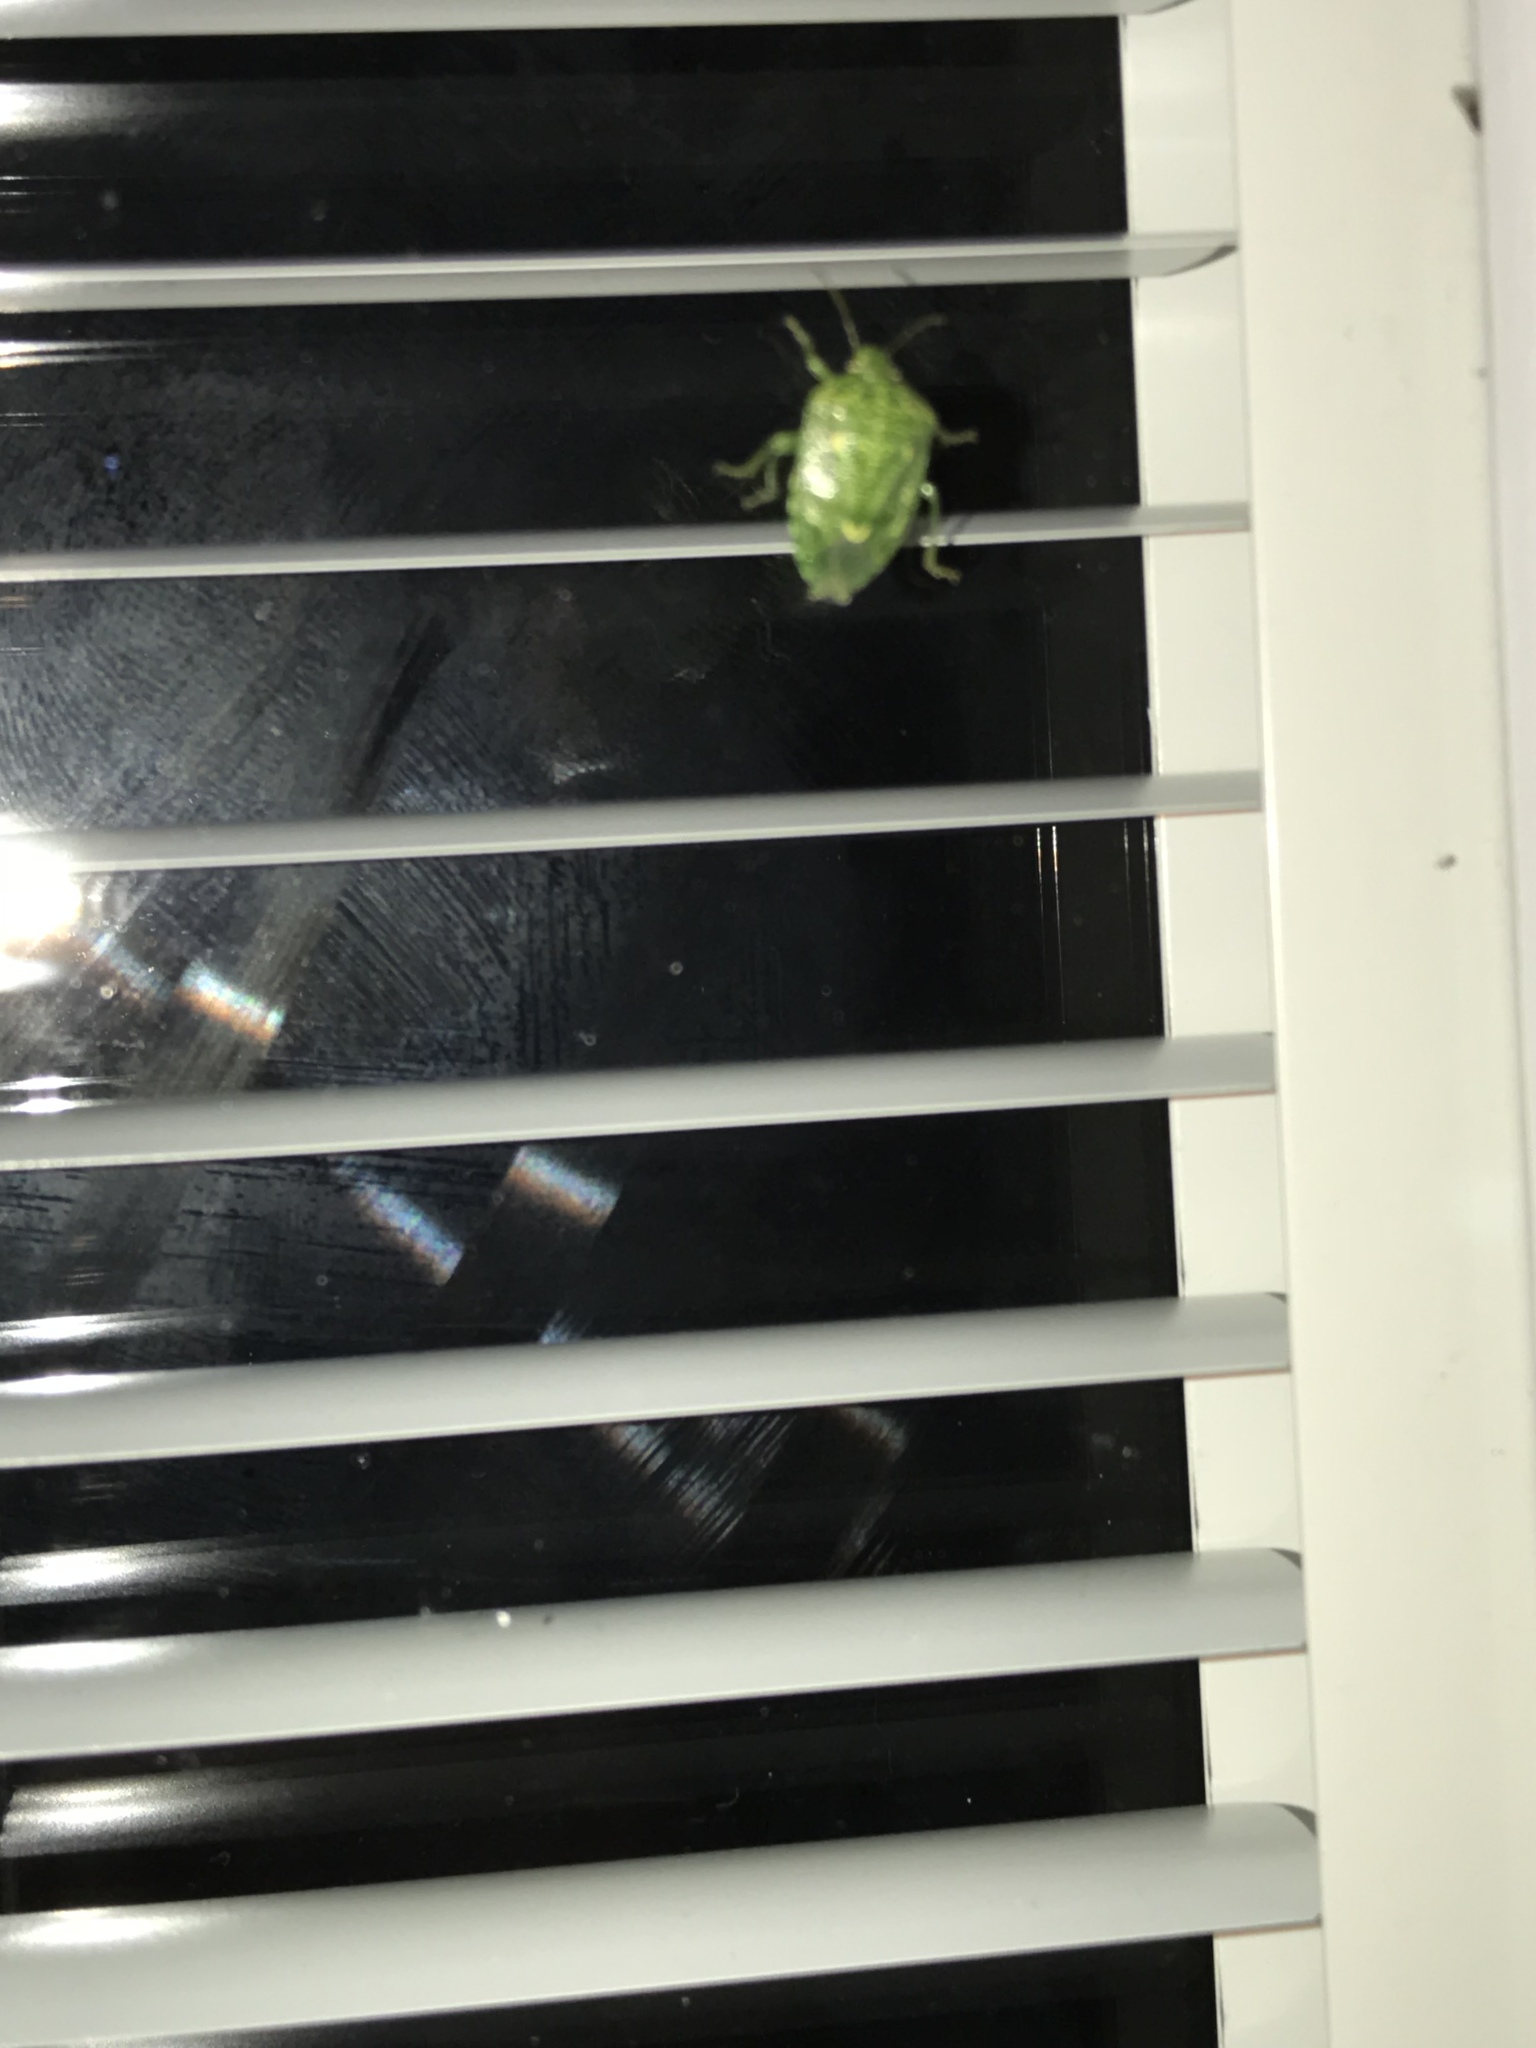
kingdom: Animalia
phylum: Arthropoda
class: Insecta
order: Hemiptera
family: Pentatomidae
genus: Banasa
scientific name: Banasa euchlora
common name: Cedar berry bug
